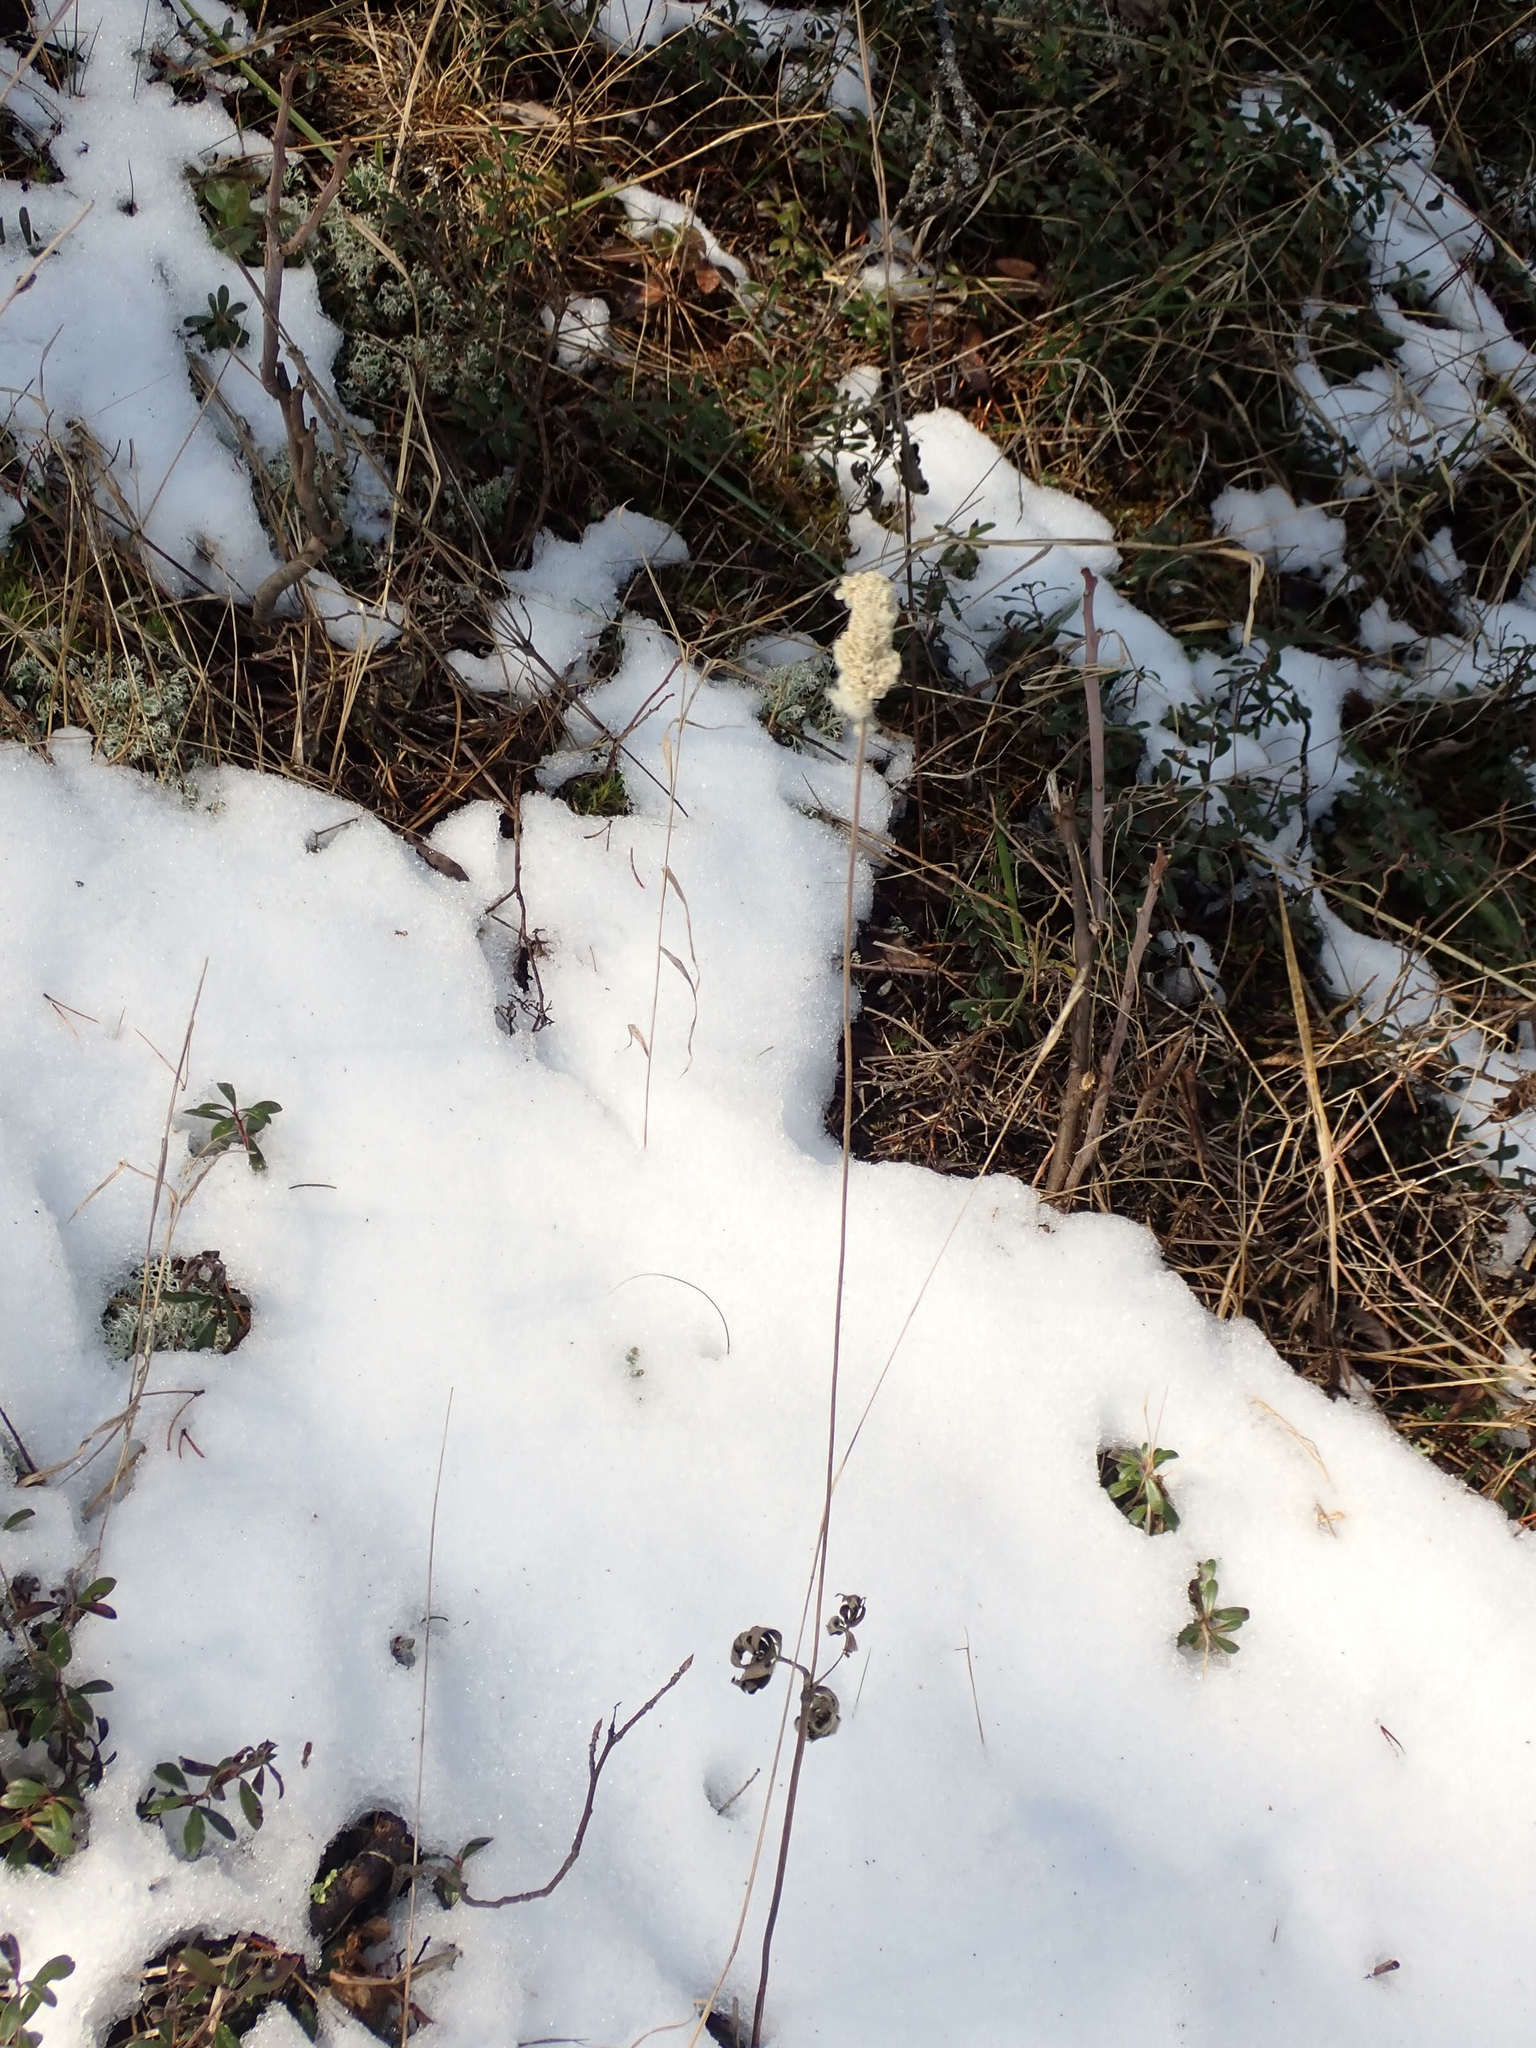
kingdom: Plantae
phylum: Tracheophyta
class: Magnoliopsida
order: Ranunculales
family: Ranunculaceae
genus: Anemone
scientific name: Anemone cylindrica
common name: Candle anemone
